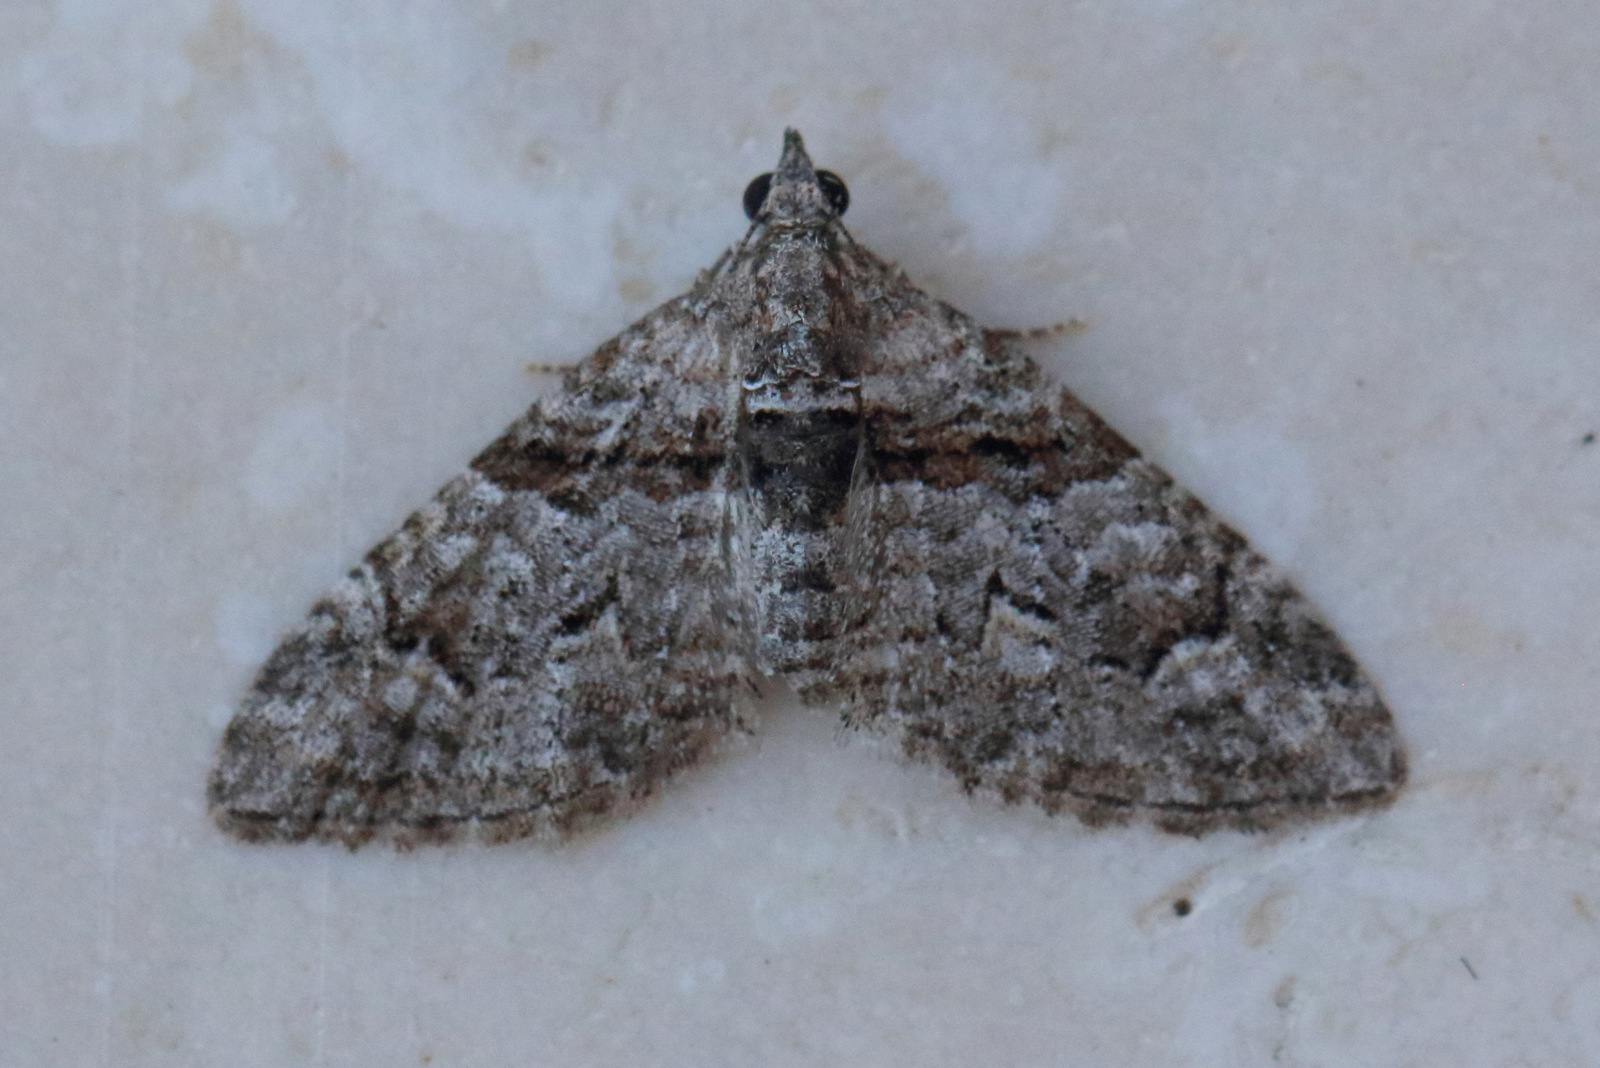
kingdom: Animalia
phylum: Arthropoda
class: Insecta
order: Lepidoptera
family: Geometridae
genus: Phrissogonus
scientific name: Phrissogonus laticostata
